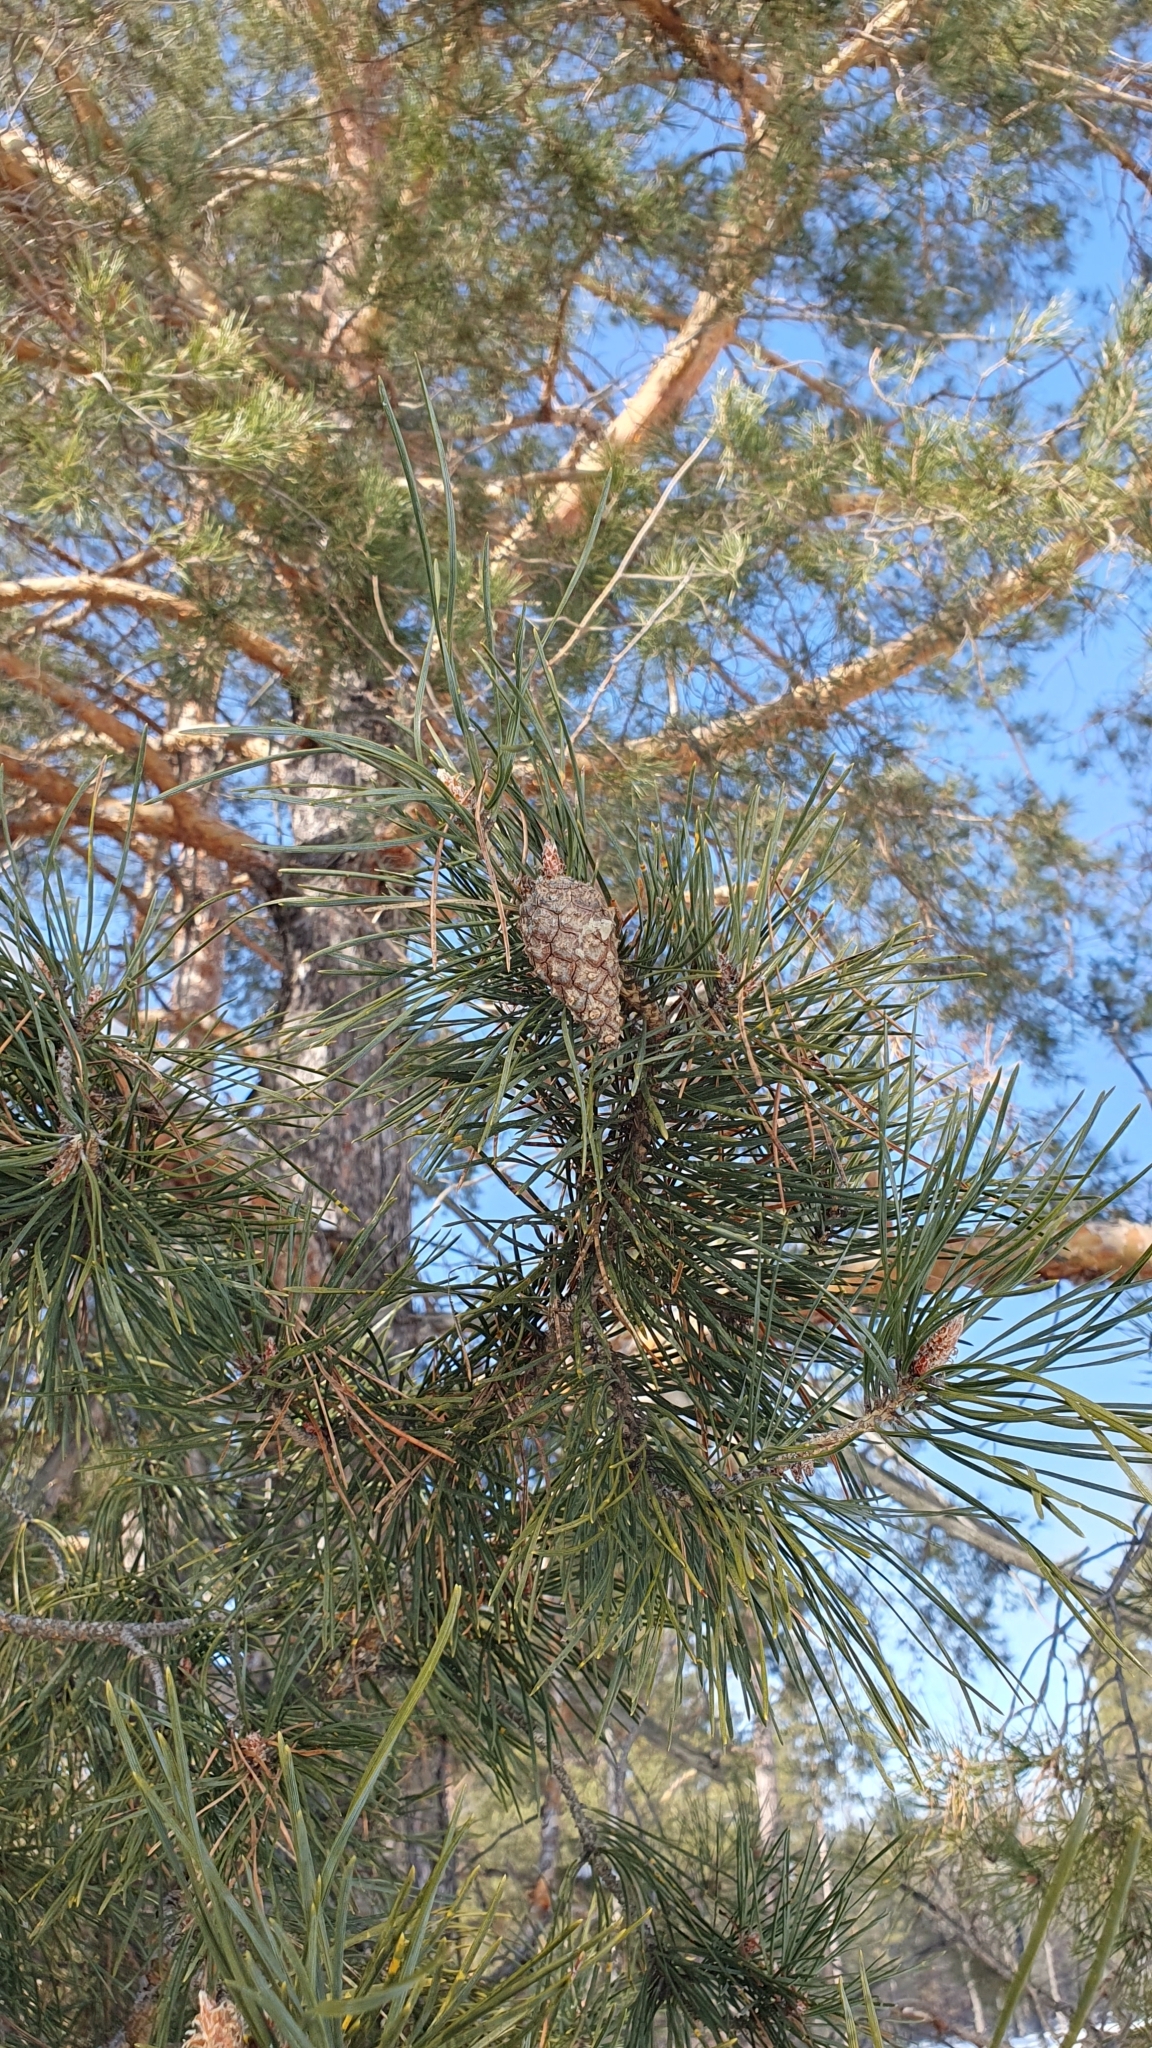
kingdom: Plantae
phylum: Tracheophyta
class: Pinopsida
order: Pinales
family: Pinaceae
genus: Pinus
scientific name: Pinus sylvestris
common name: Scots pine
